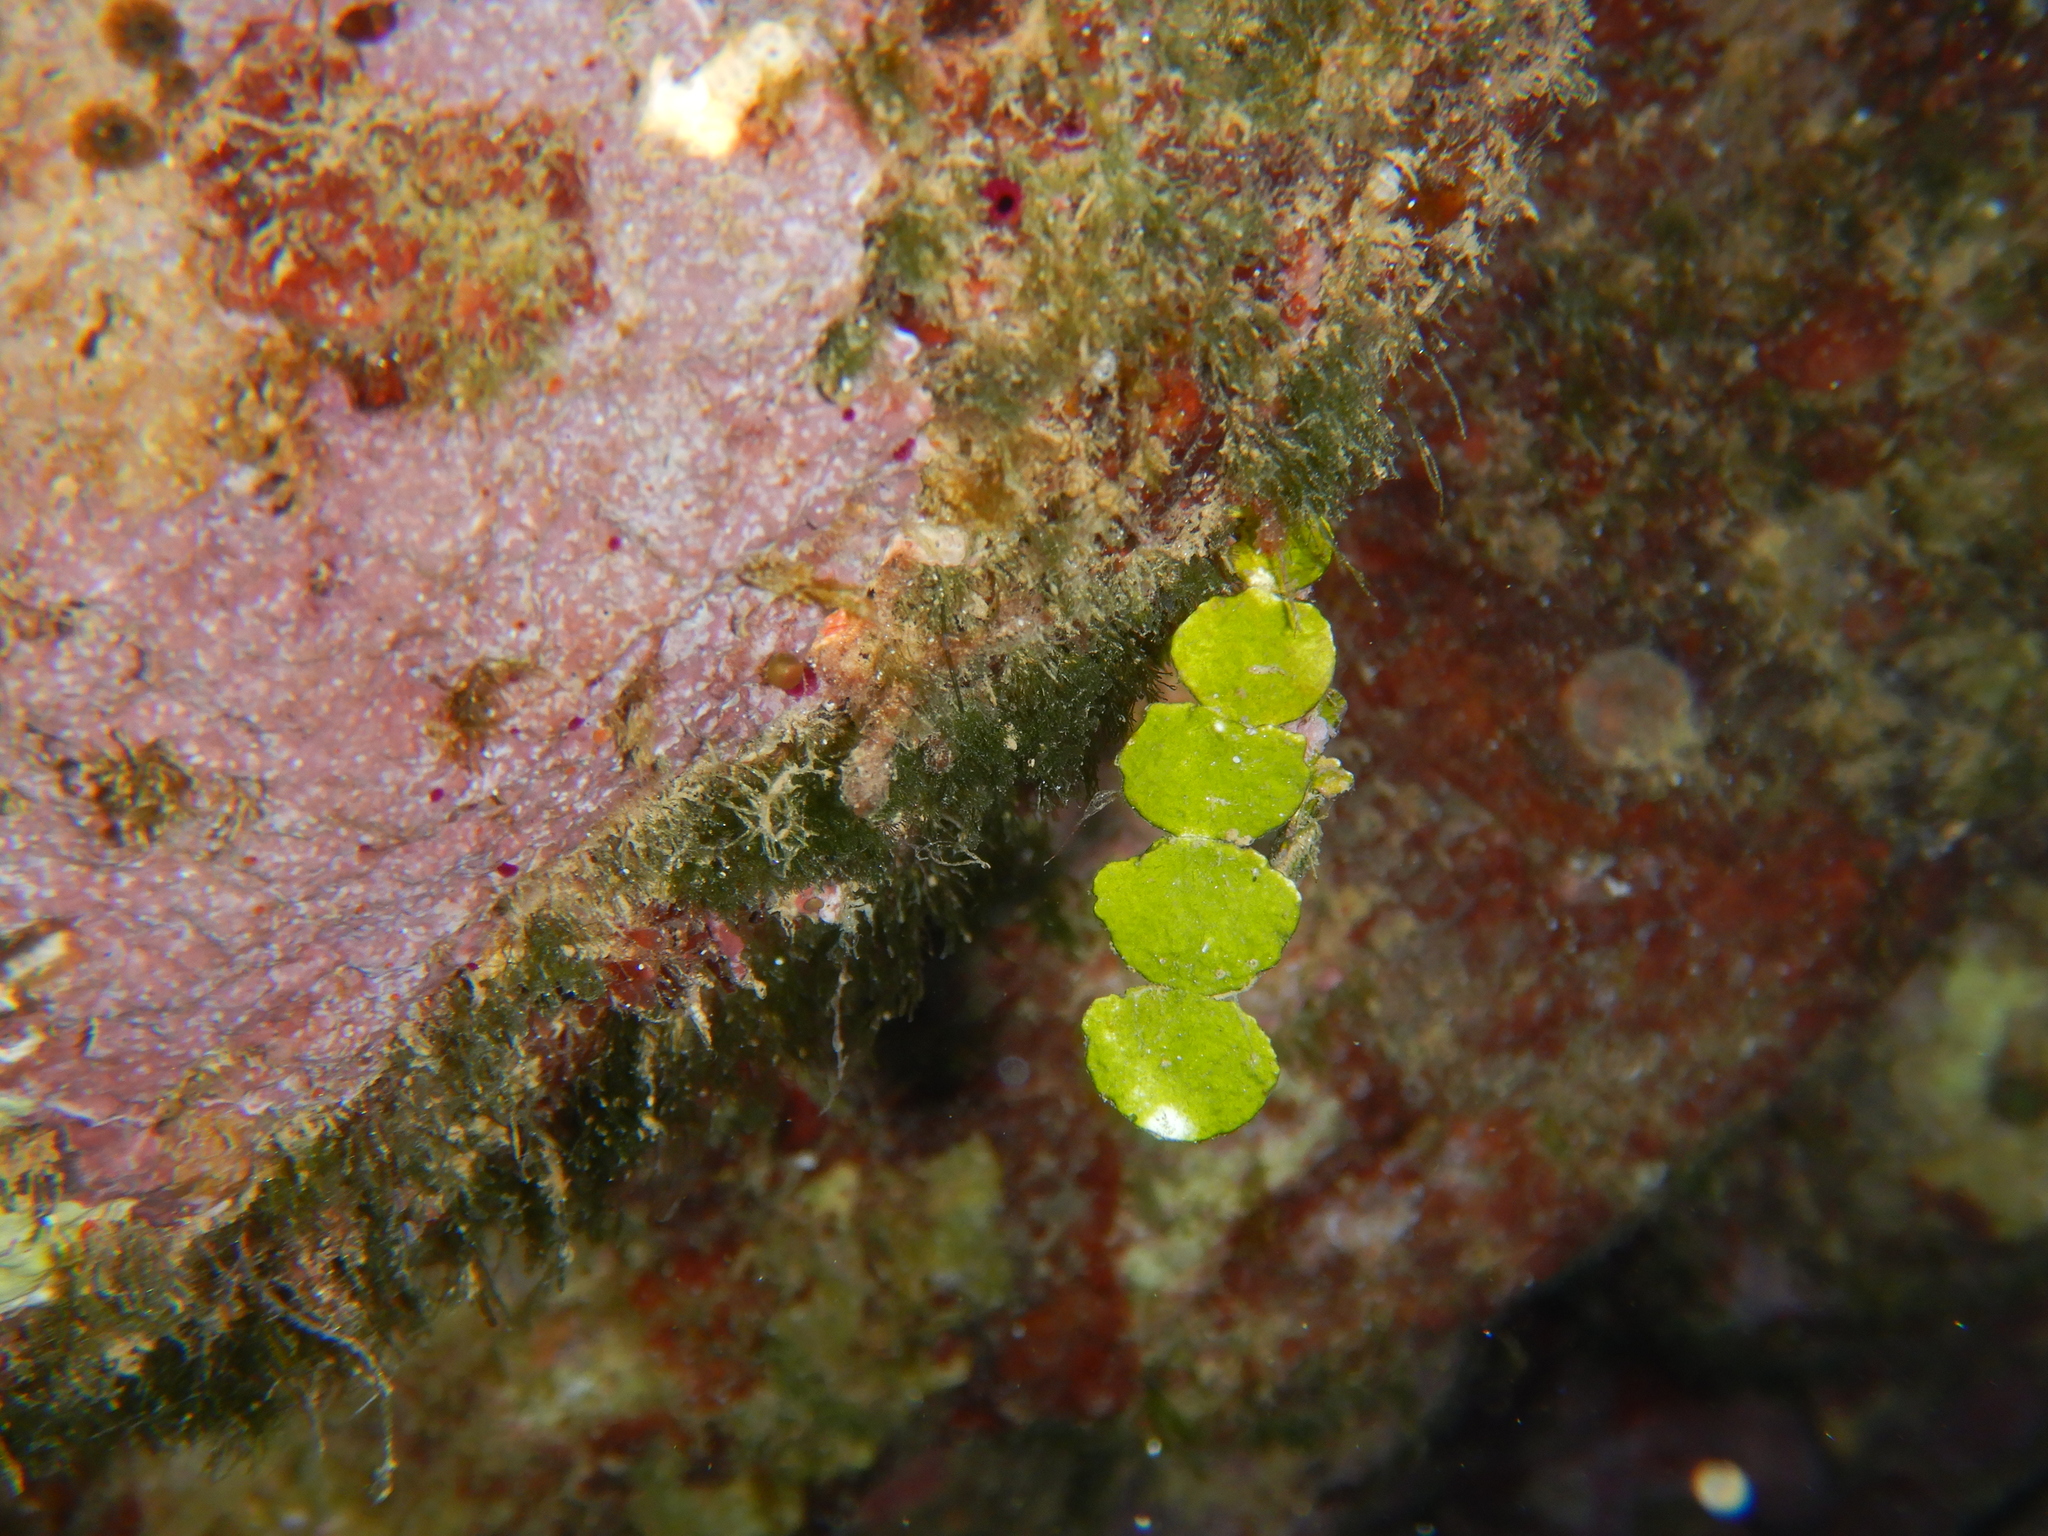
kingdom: Plantae
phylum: Chlorophyta
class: Ulvophyceae
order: Bryopsidales
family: Halimedaceae
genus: Halimeda
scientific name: Halimeda tuna
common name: Stalked lettuce leaf algae
